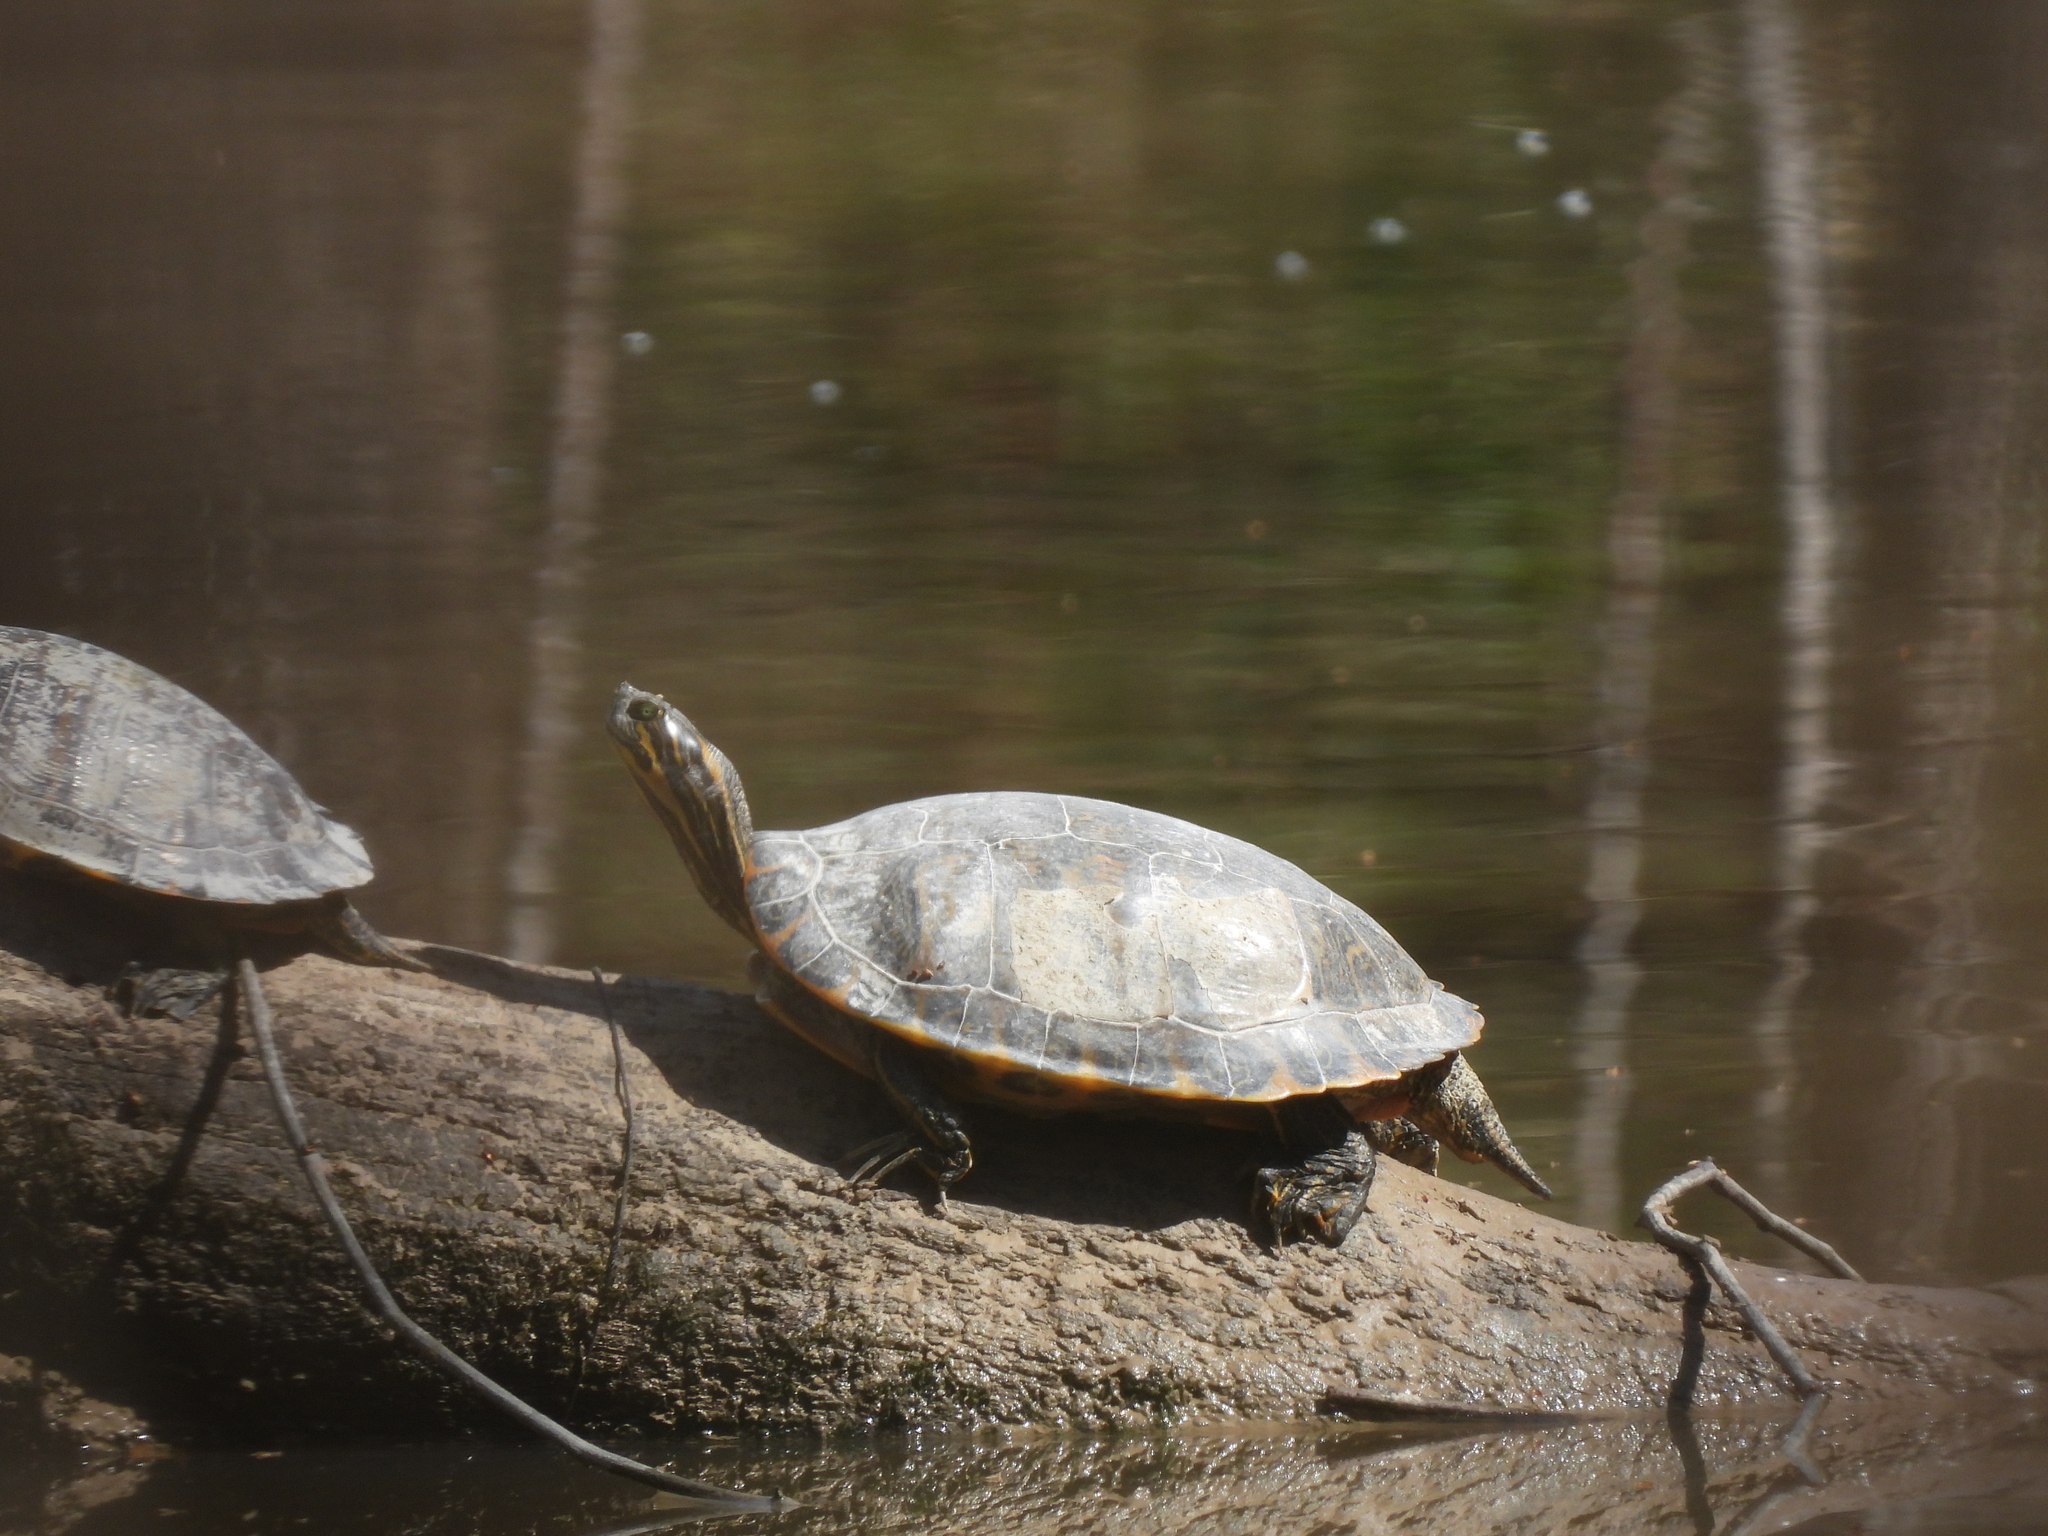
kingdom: Animalia
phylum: Chordata
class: Testudines
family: Emydidae
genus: Pseudemys
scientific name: Pseudemys concinna
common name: Eastern river cooter
